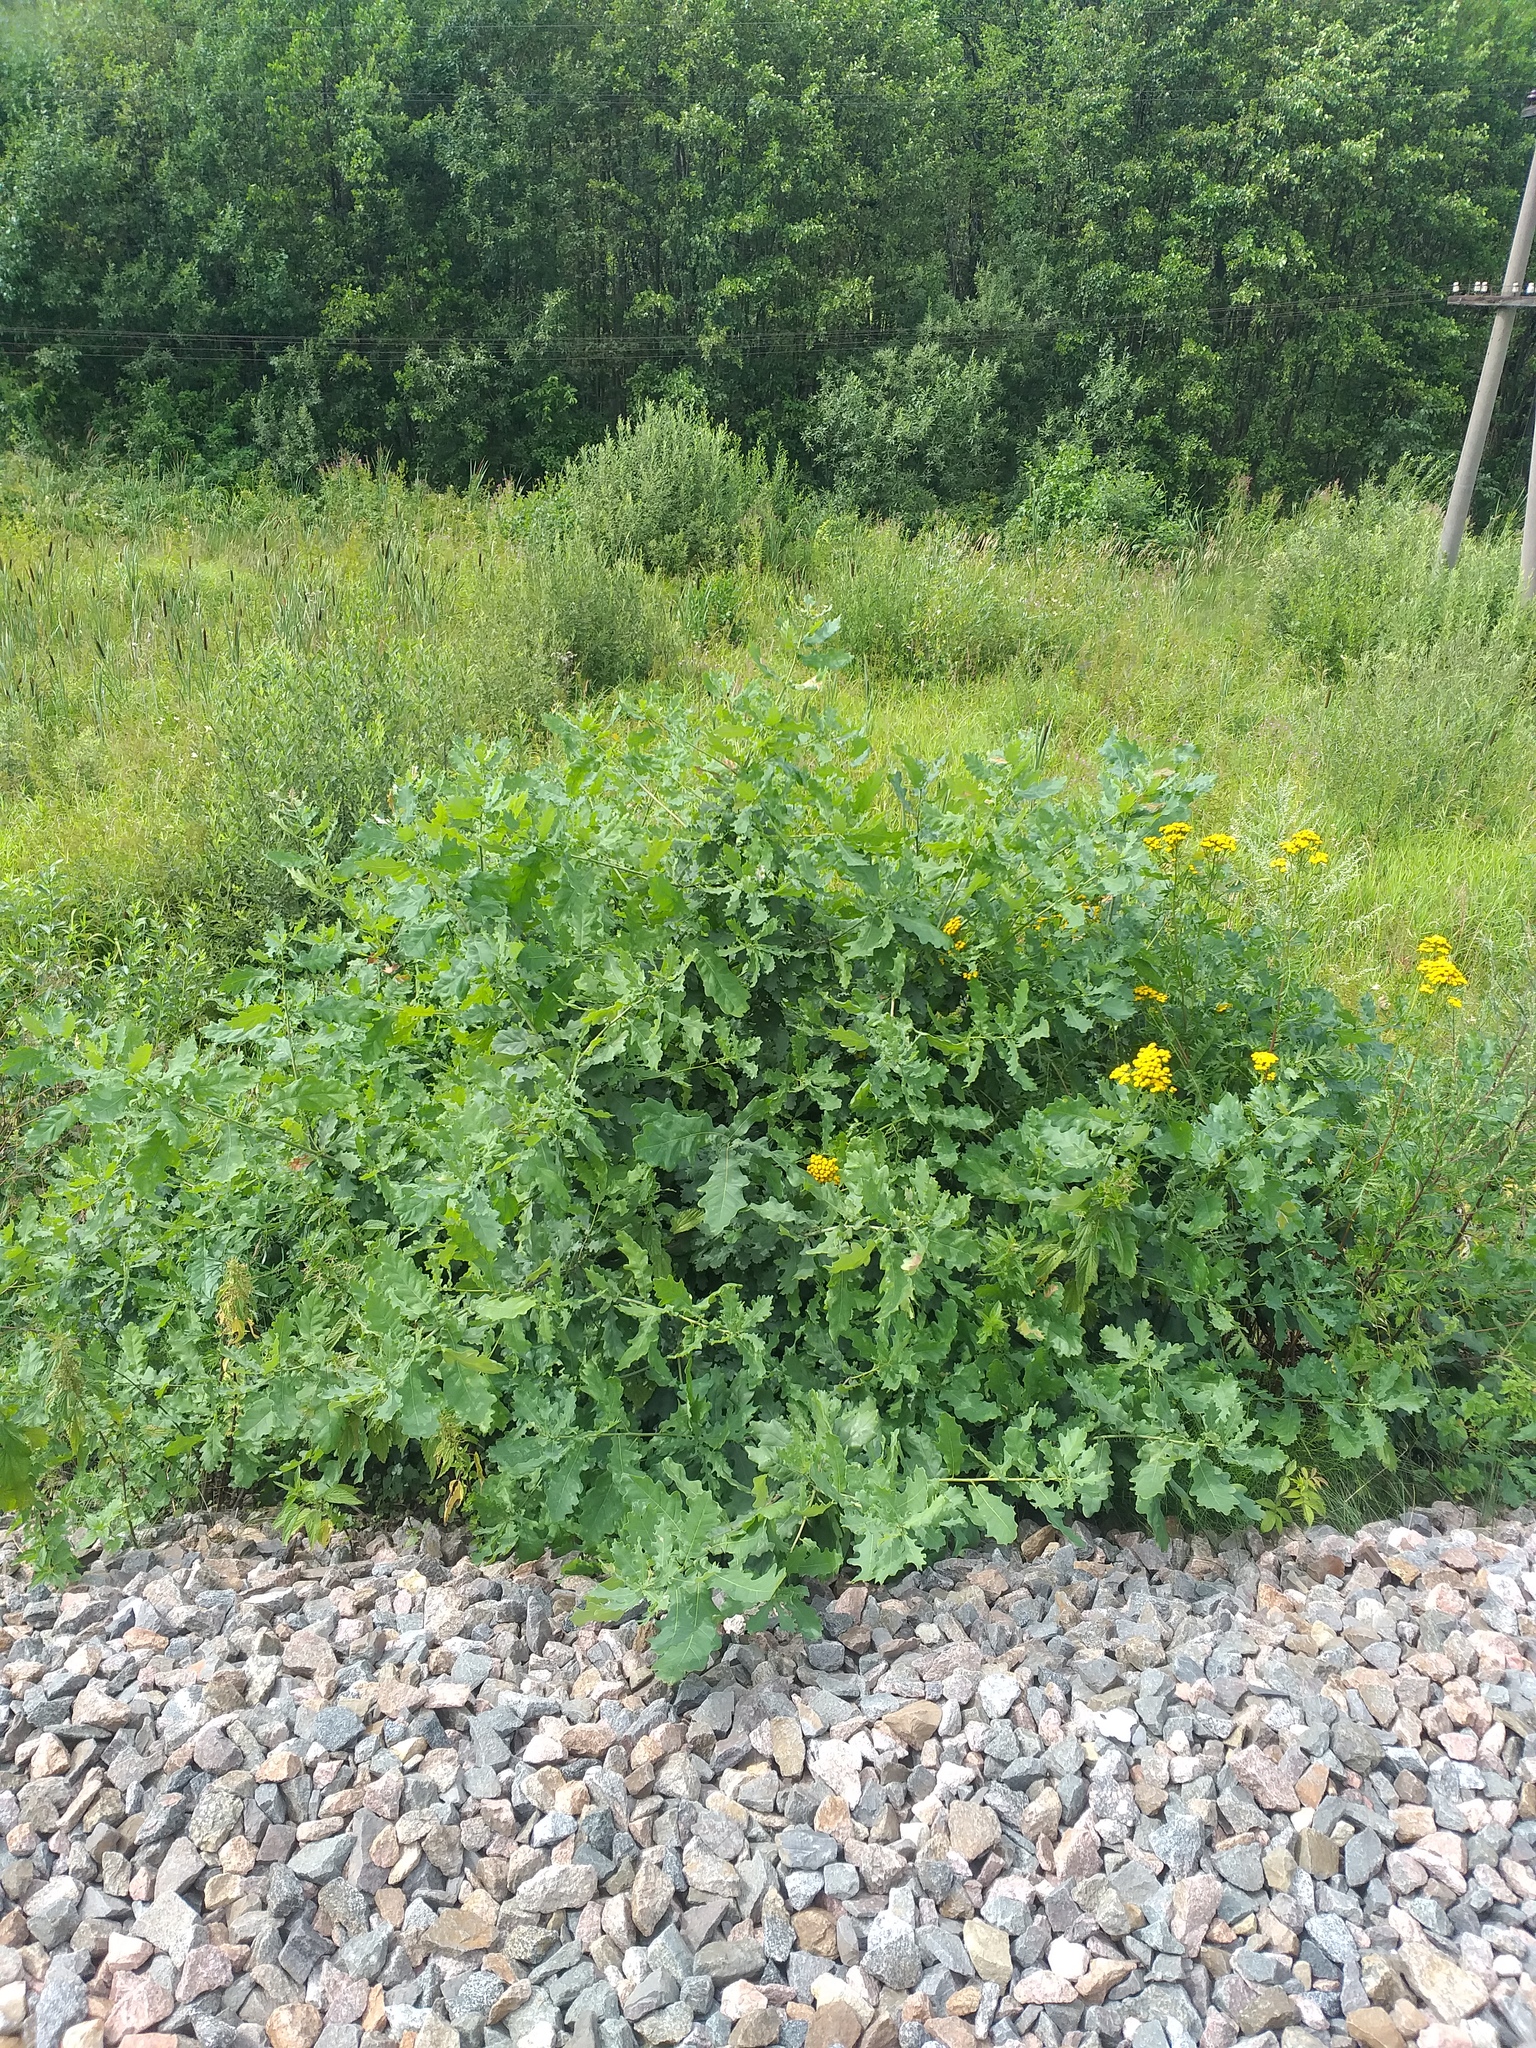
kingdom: Plantae
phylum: Tracheophyta
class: Magnoliopsida
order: Fagales
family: Fagaceae
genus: Quercus
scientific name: Quercus robur
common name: Pedunculate oak
